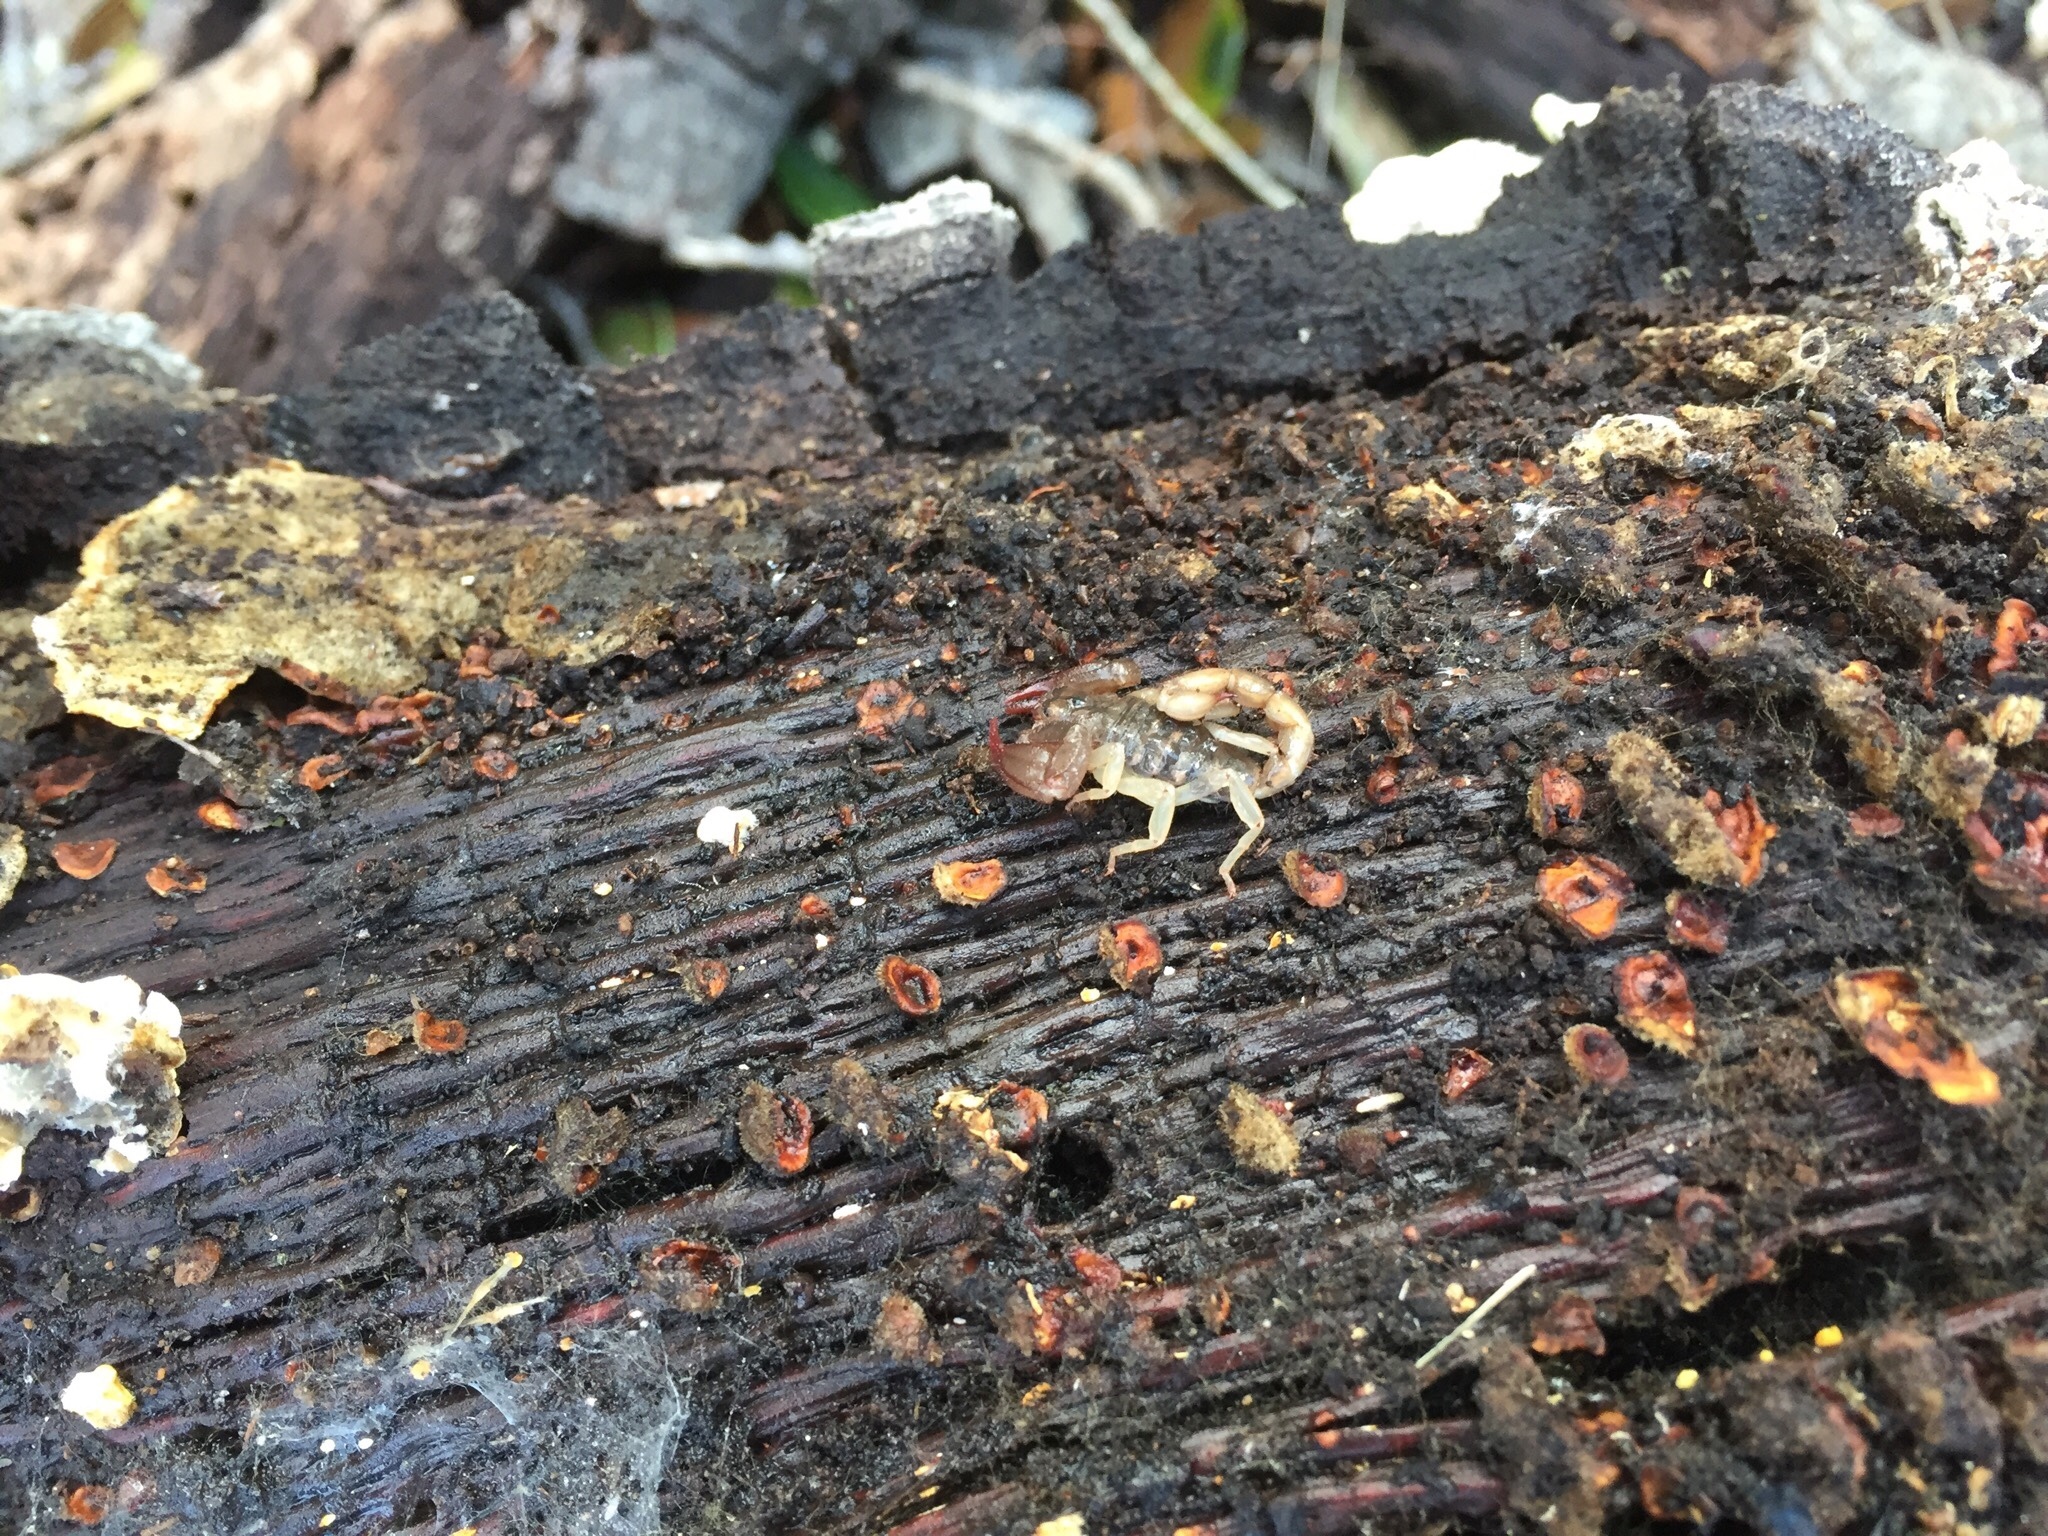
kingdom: Animalia
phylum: Arthropoda
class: Arachnida
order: Scorpiones
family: Chactidae
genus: Uroctonus
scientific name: Uroctonus mordax
